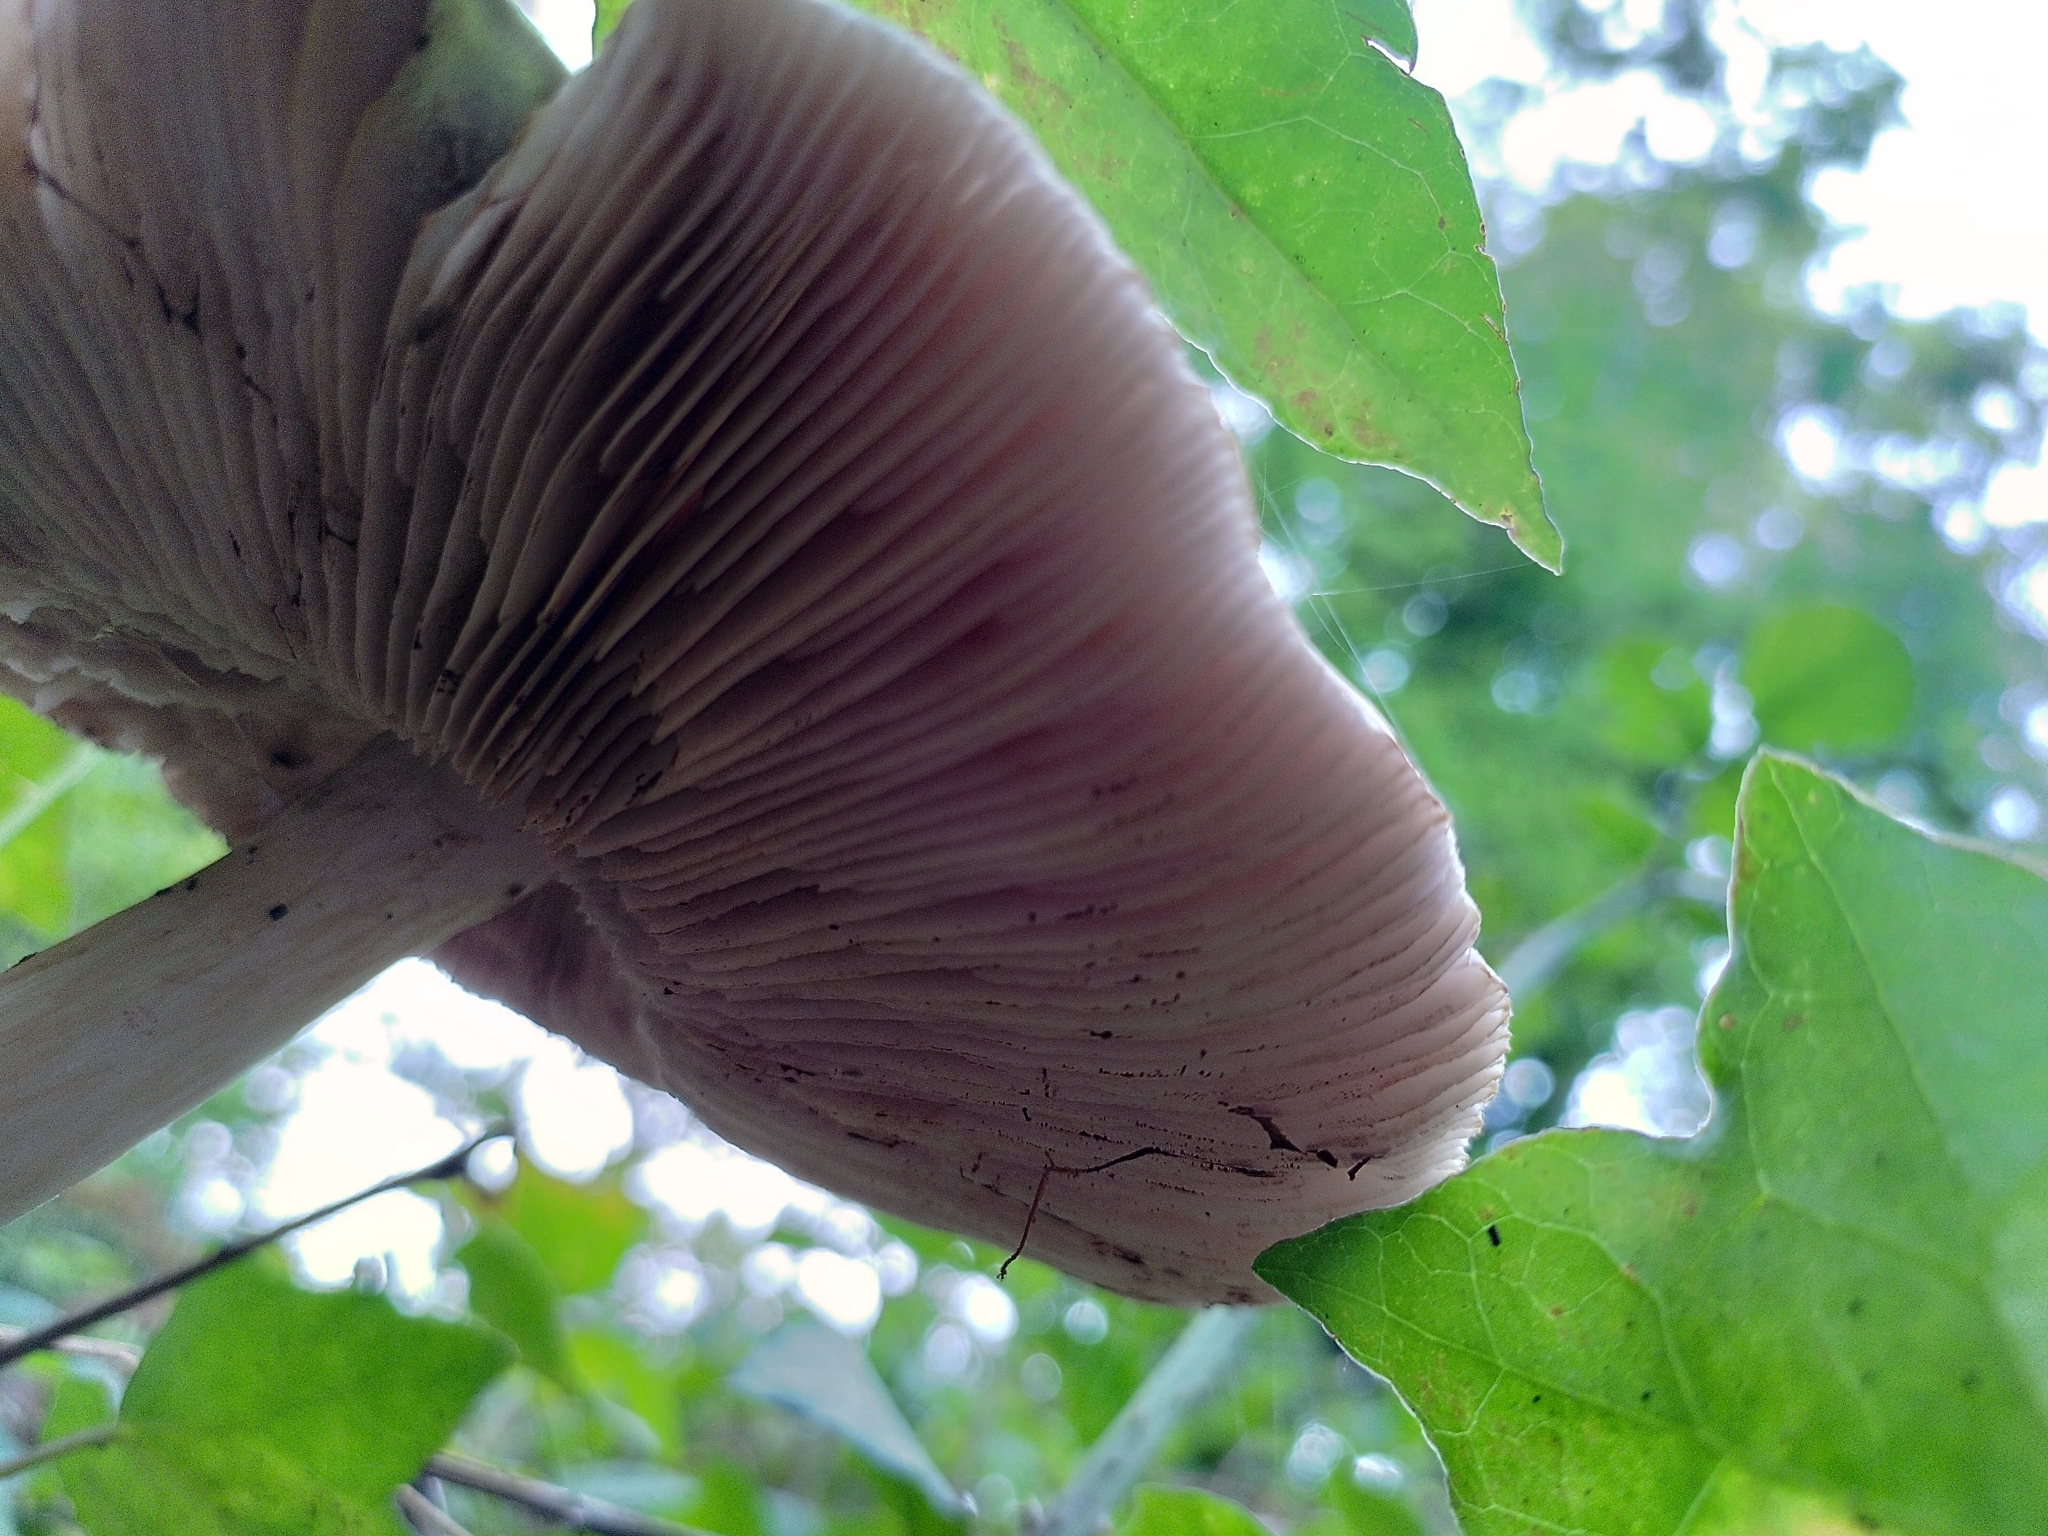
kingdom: Fungi
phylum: Basidiomycota
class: Agaricomycetes
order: Agaricales
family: Pluteaceae
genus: Pluteus
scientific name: Pluteus cervinus
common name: Deer shield
